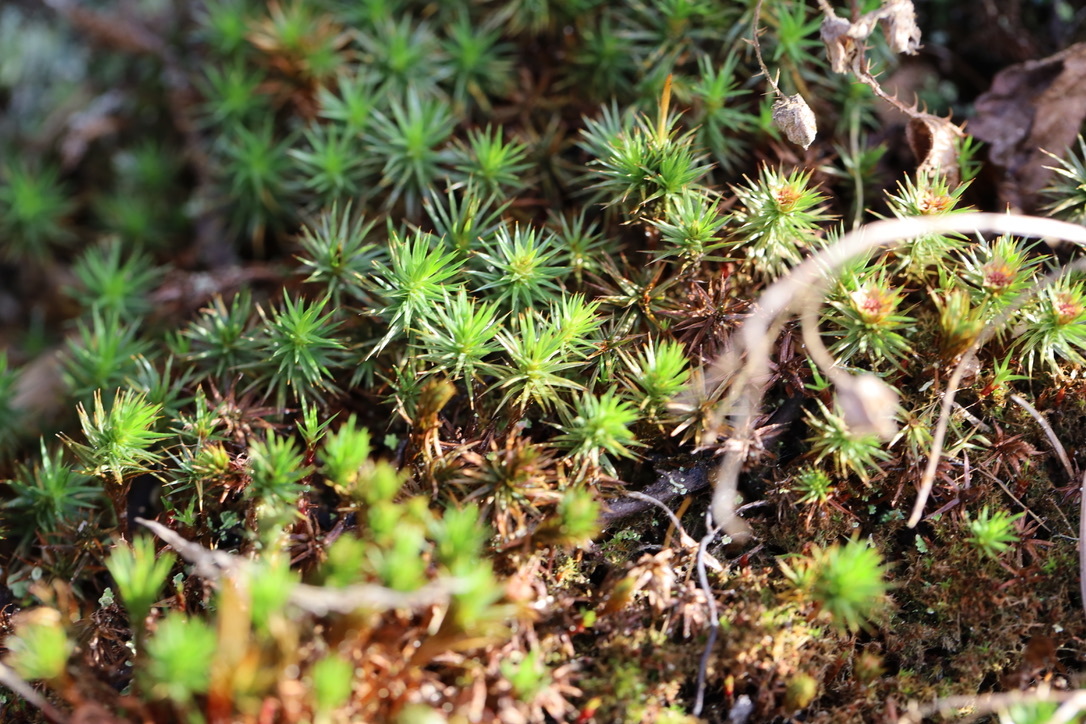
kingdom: Plantae
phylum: Bryophyta
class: Polytrichopsida
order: Polytrichales
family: Polytrichaceae
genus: Polytrichum
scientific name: Polytrichum juniperinum
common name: Juniper haircap moss
